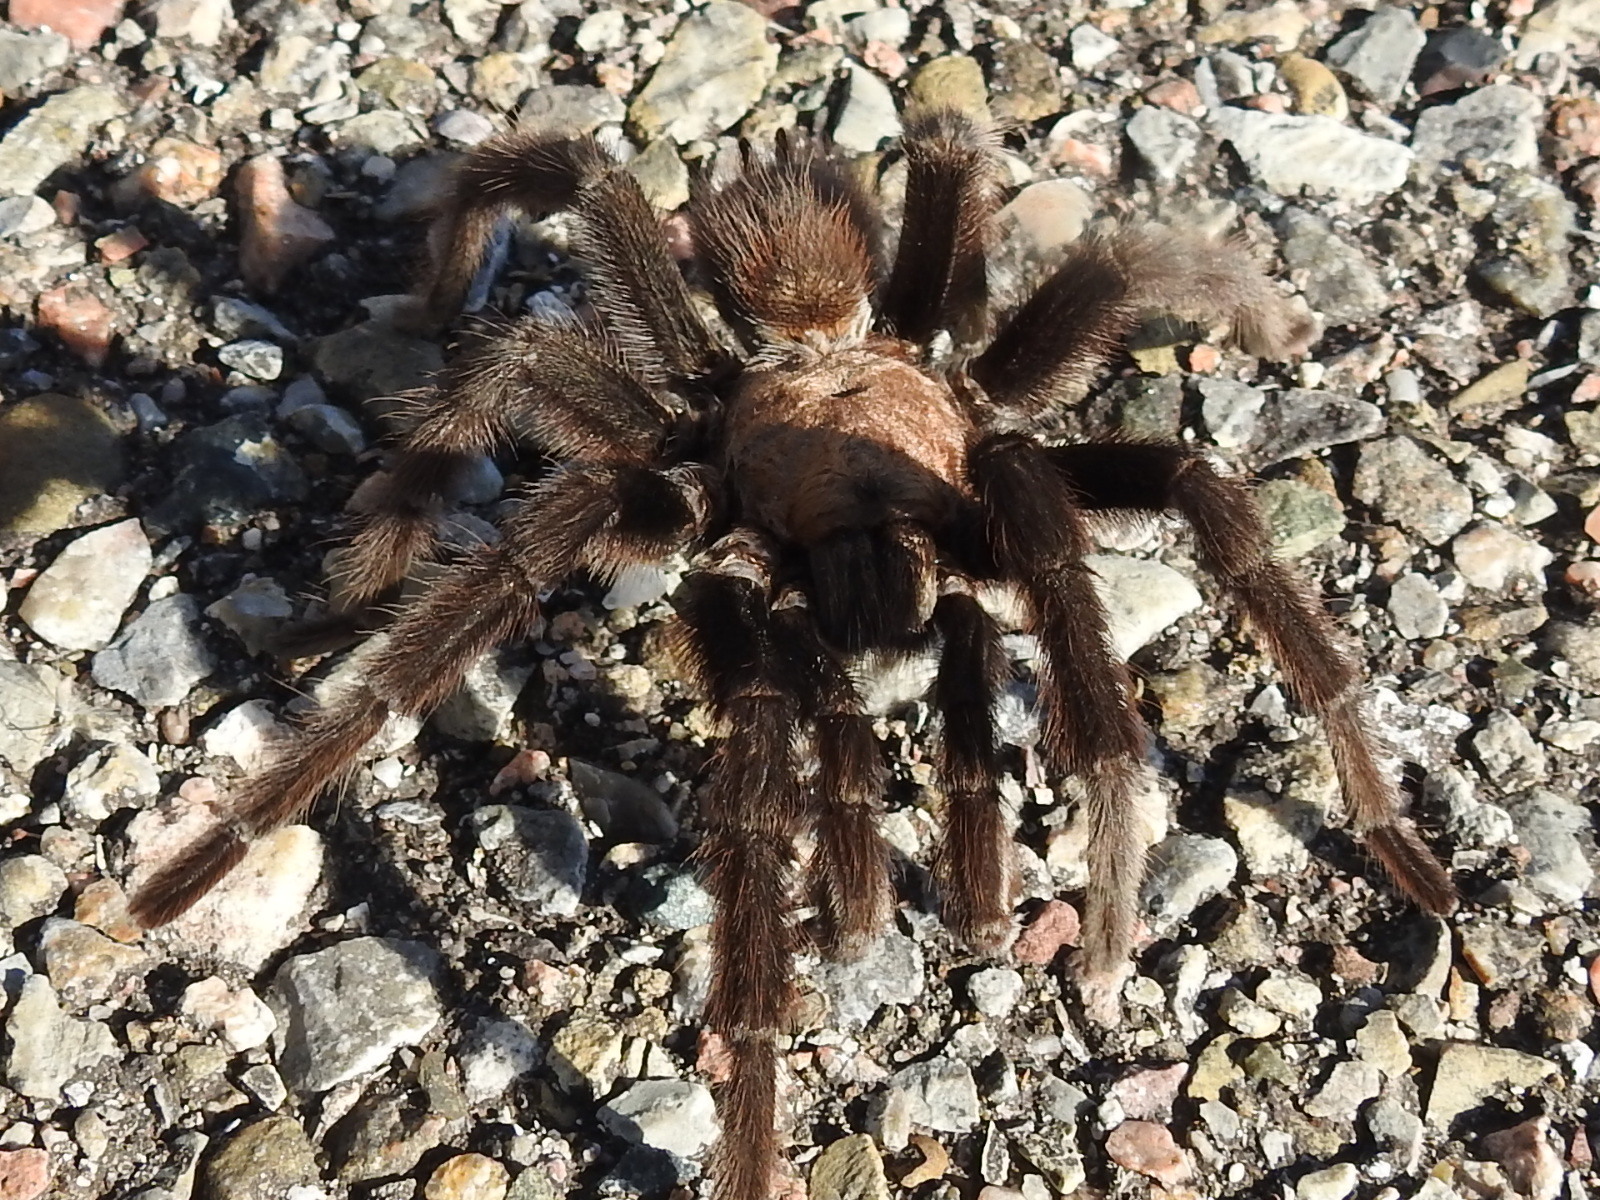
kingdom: Animalia
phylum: Arthropoda
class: Arachnida
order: Araneae
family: Theraphosidae
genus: Aphonopelma
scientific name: Aphonopelma hentzi
